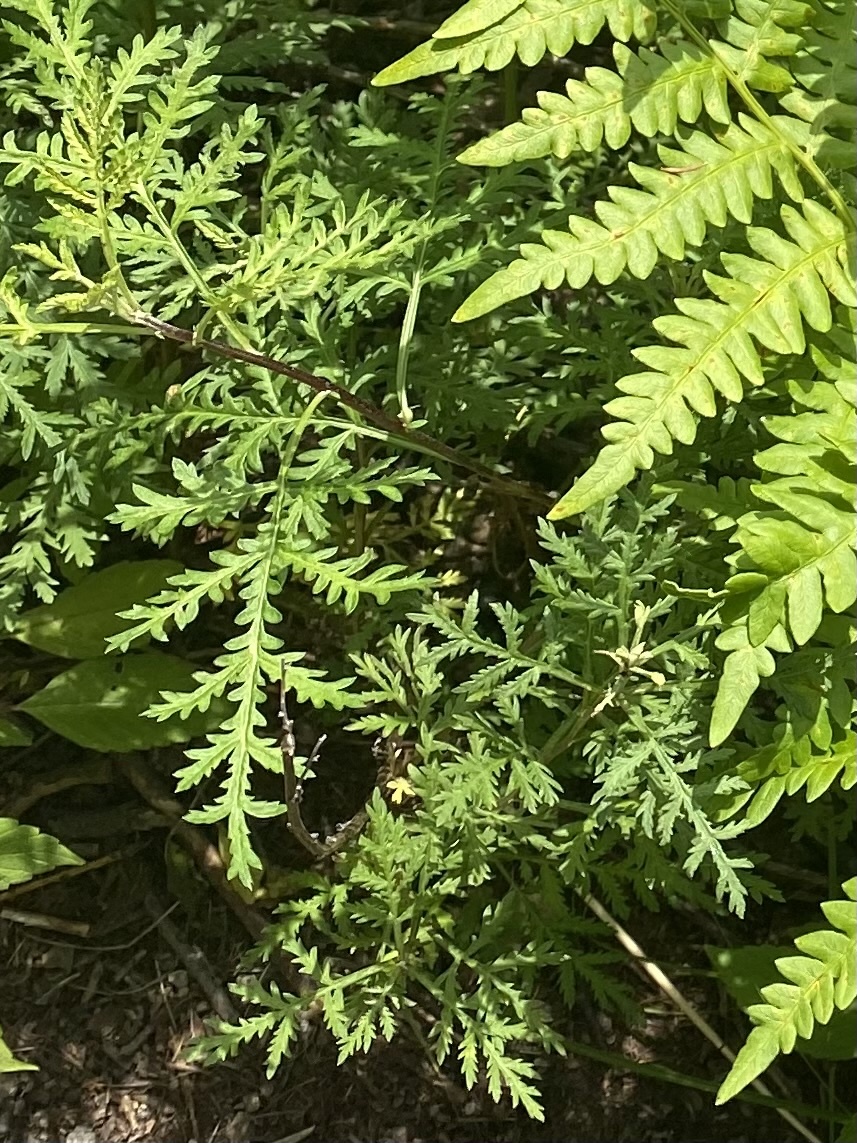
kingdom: Plantae
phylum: Tracheophyta
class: Magnoliopsida
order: Asterales
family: Asteraceae
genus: Artemisia
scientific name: Artemisia gmelinii
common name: Gmelin's wormwood
